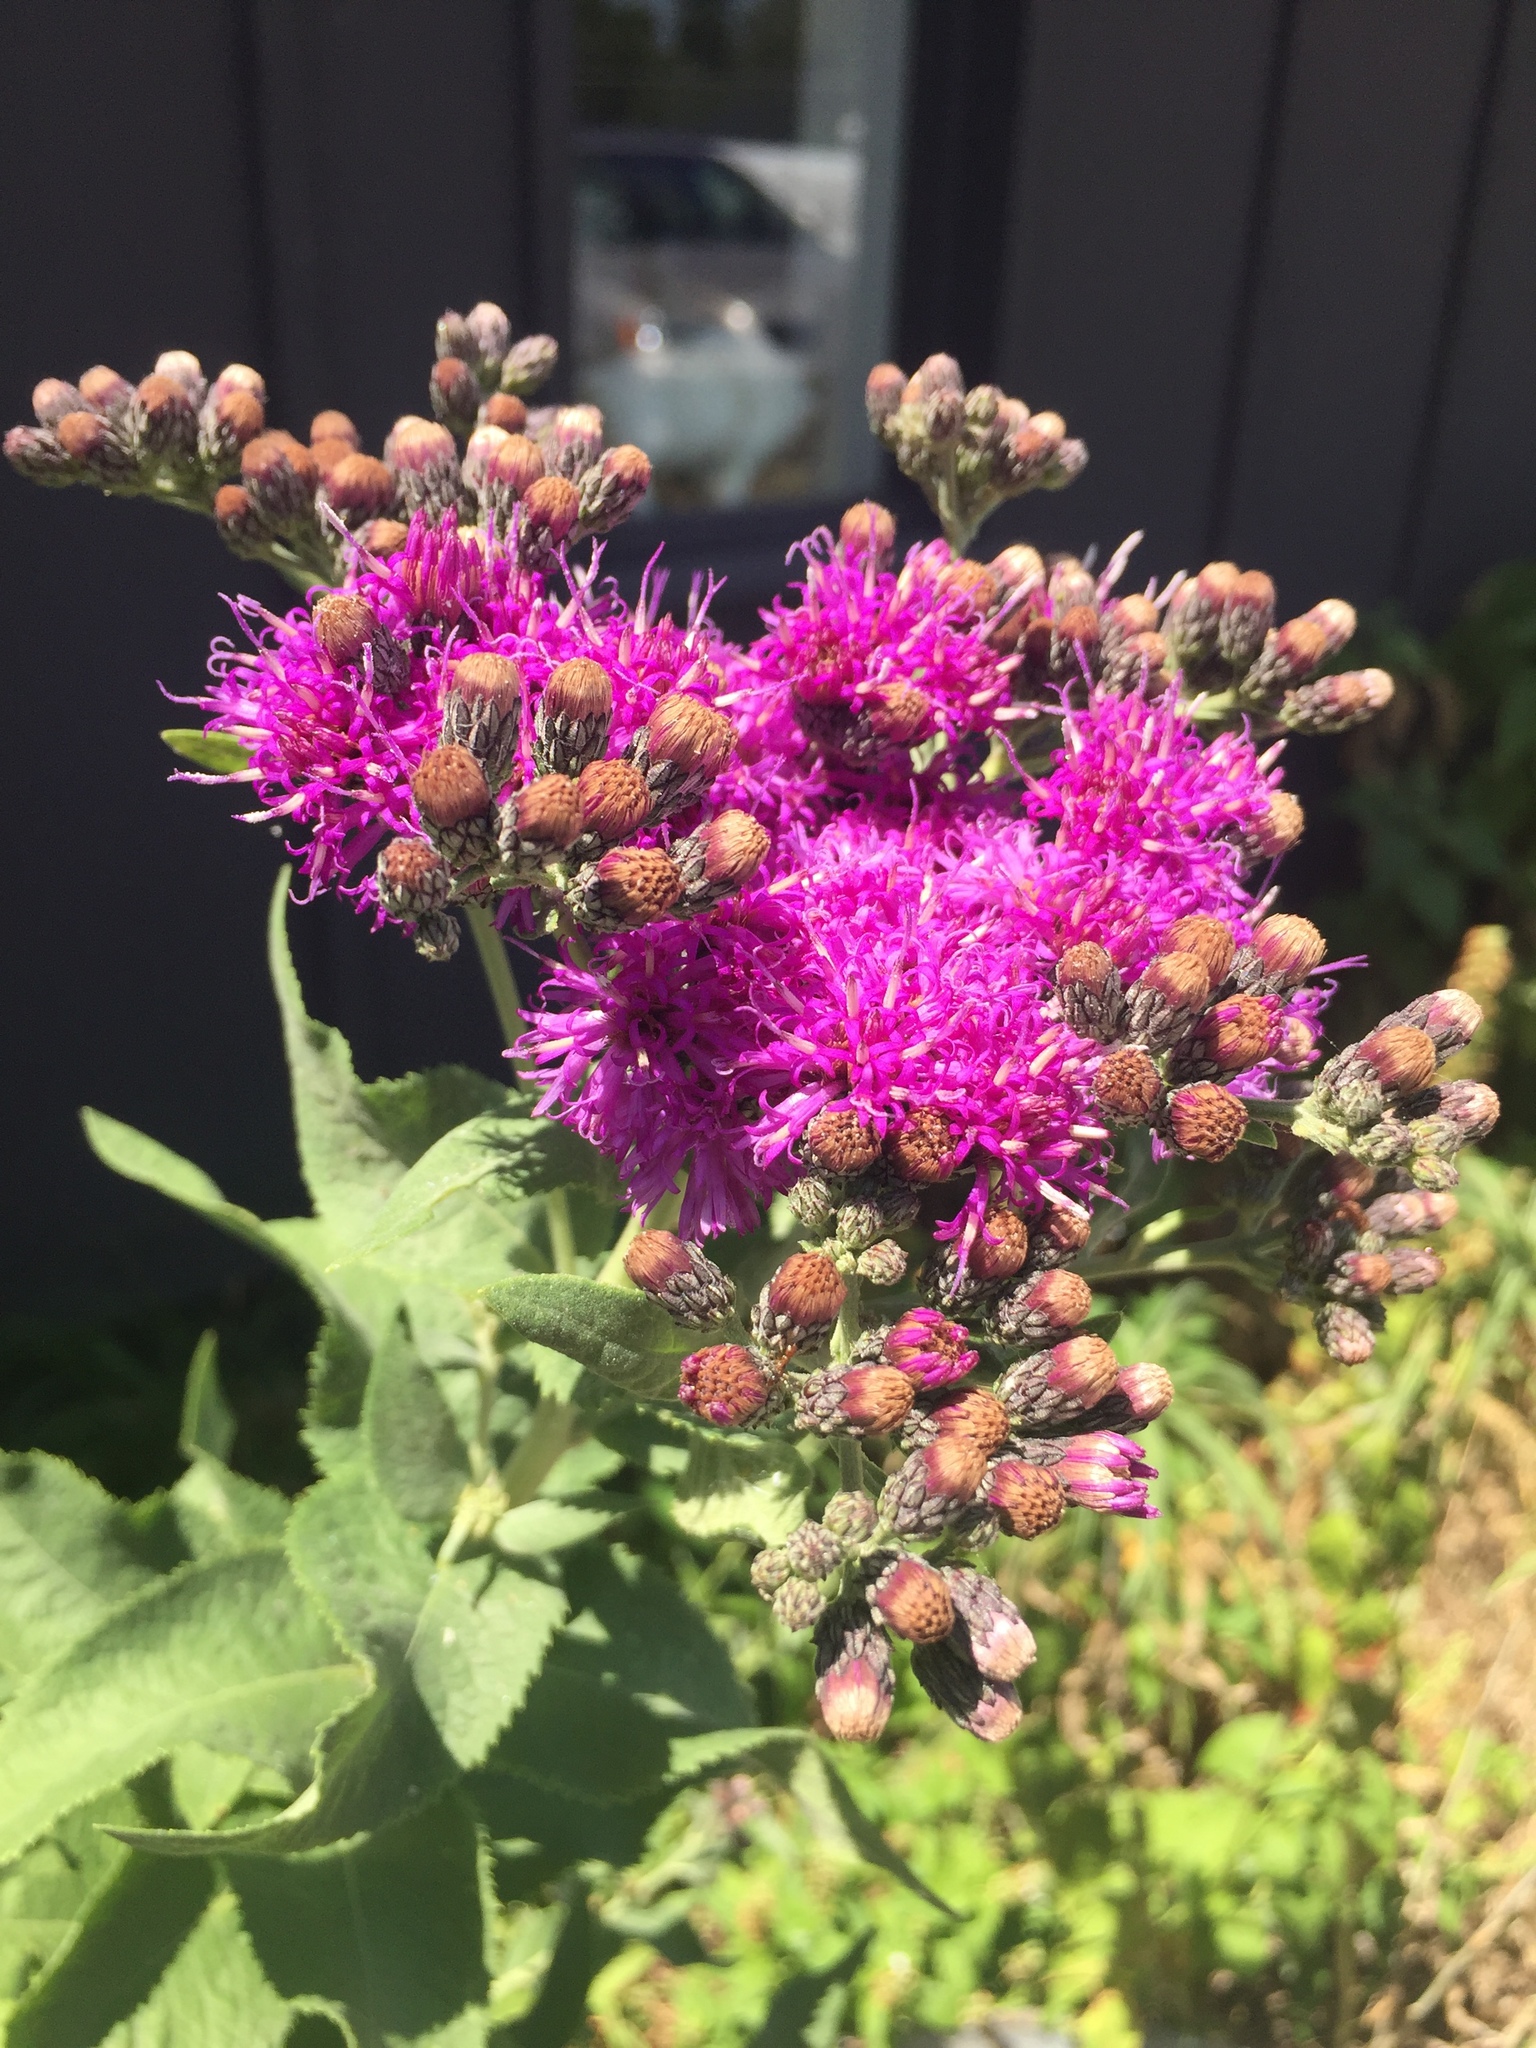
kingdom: Plantae
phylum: Tracheophyta
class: Magnoliopsida
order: Asterales
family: Asteraceae
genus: Vernonia
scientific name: Vernonia baldwinii
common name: Western ironweed
